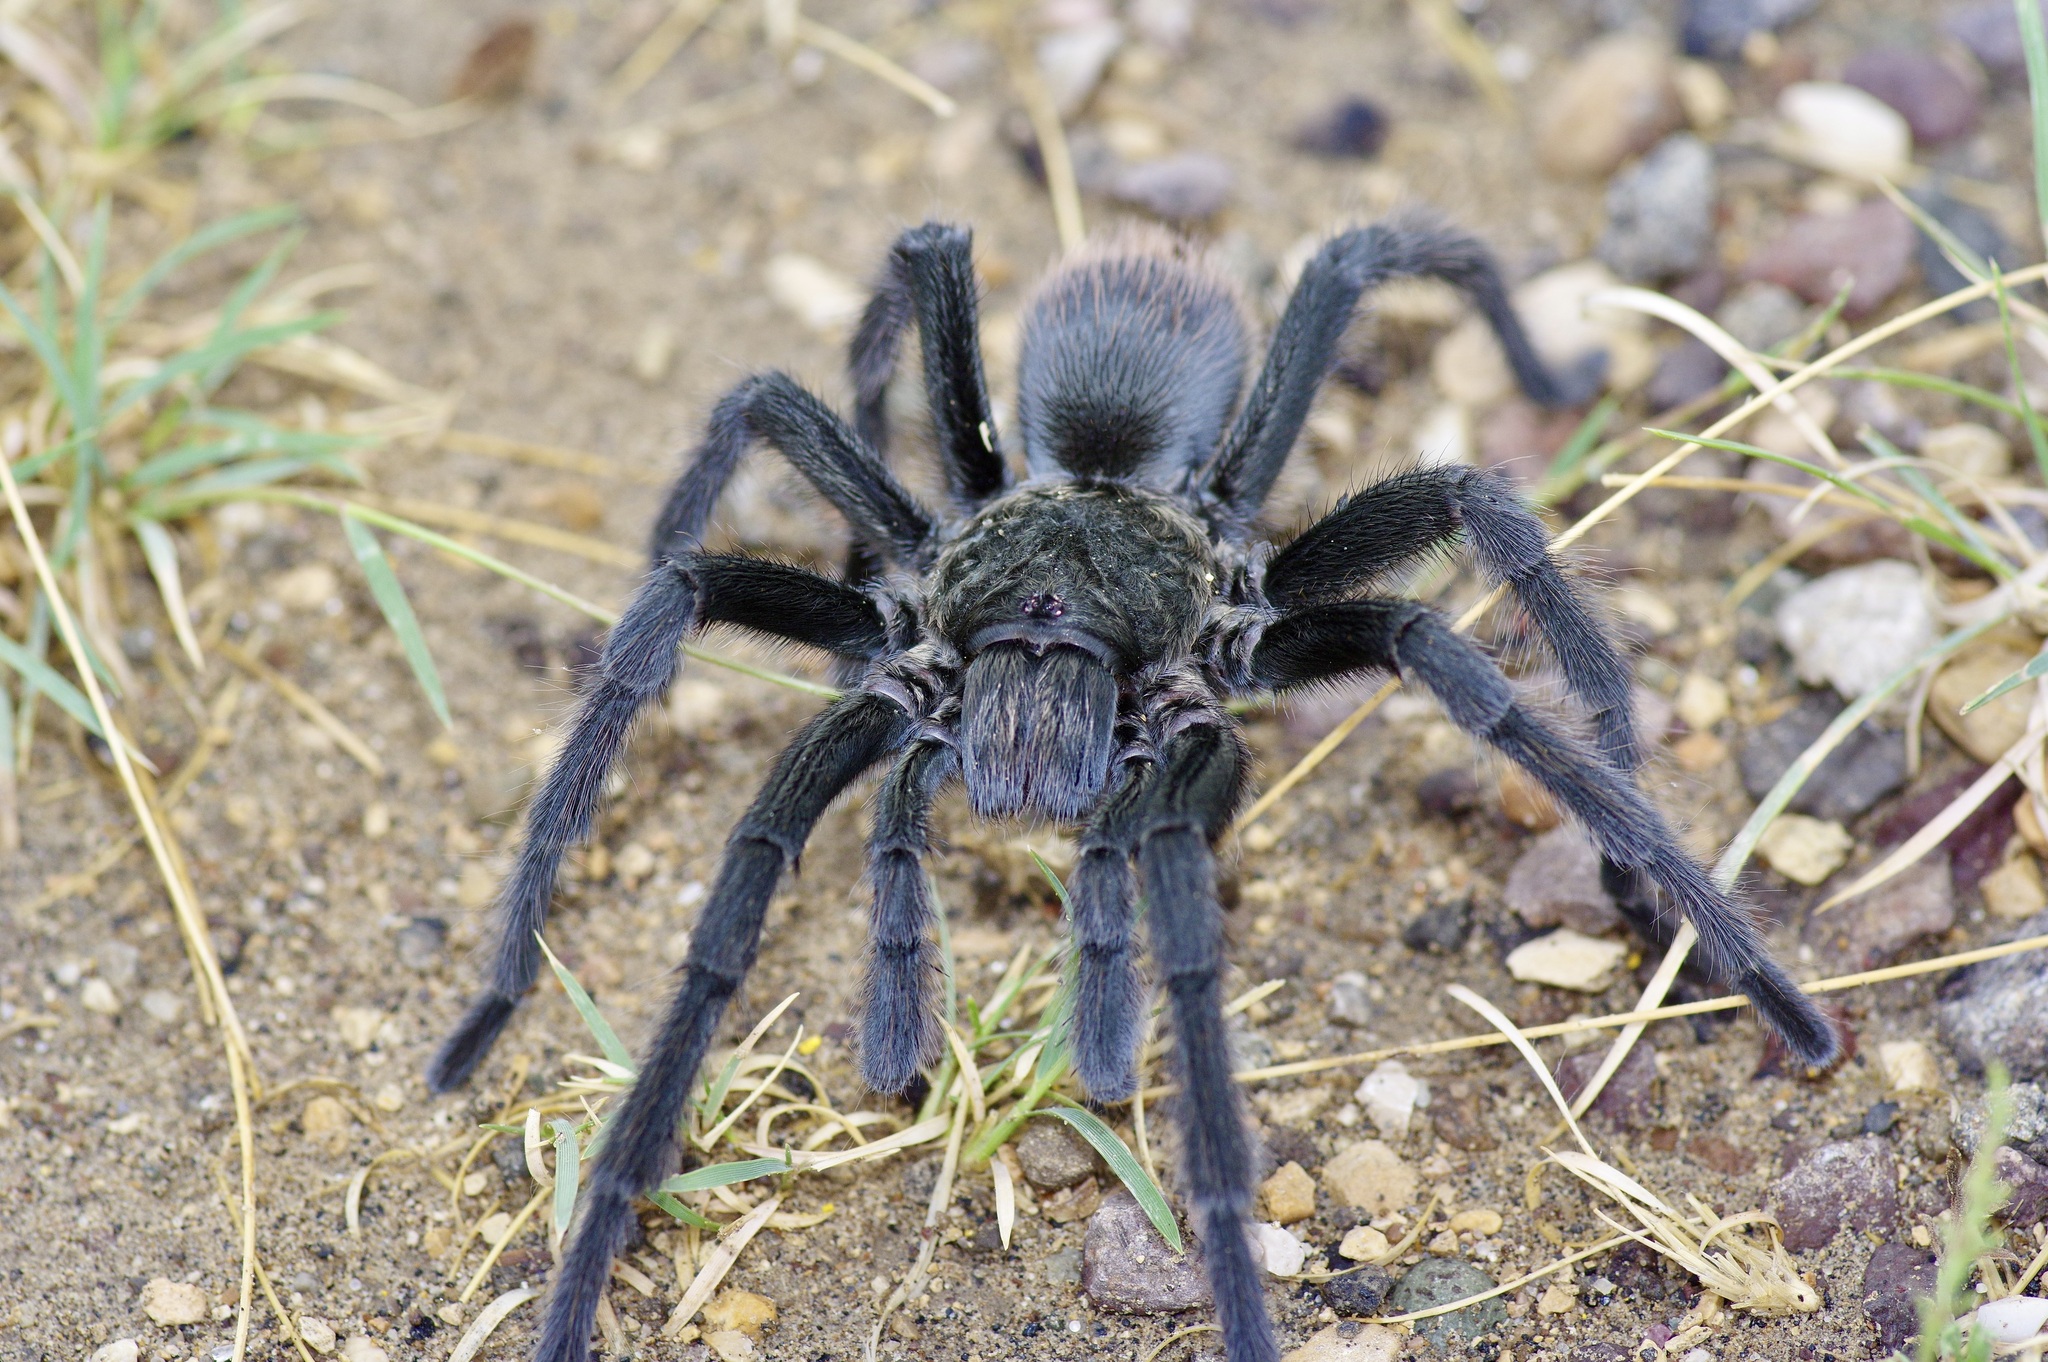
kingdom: Animalia
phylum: Arthropoda
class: Arachnida
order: Araneae
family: Theraphosidae
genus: Aphonopelma
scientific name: Aphonopelma gabeli
